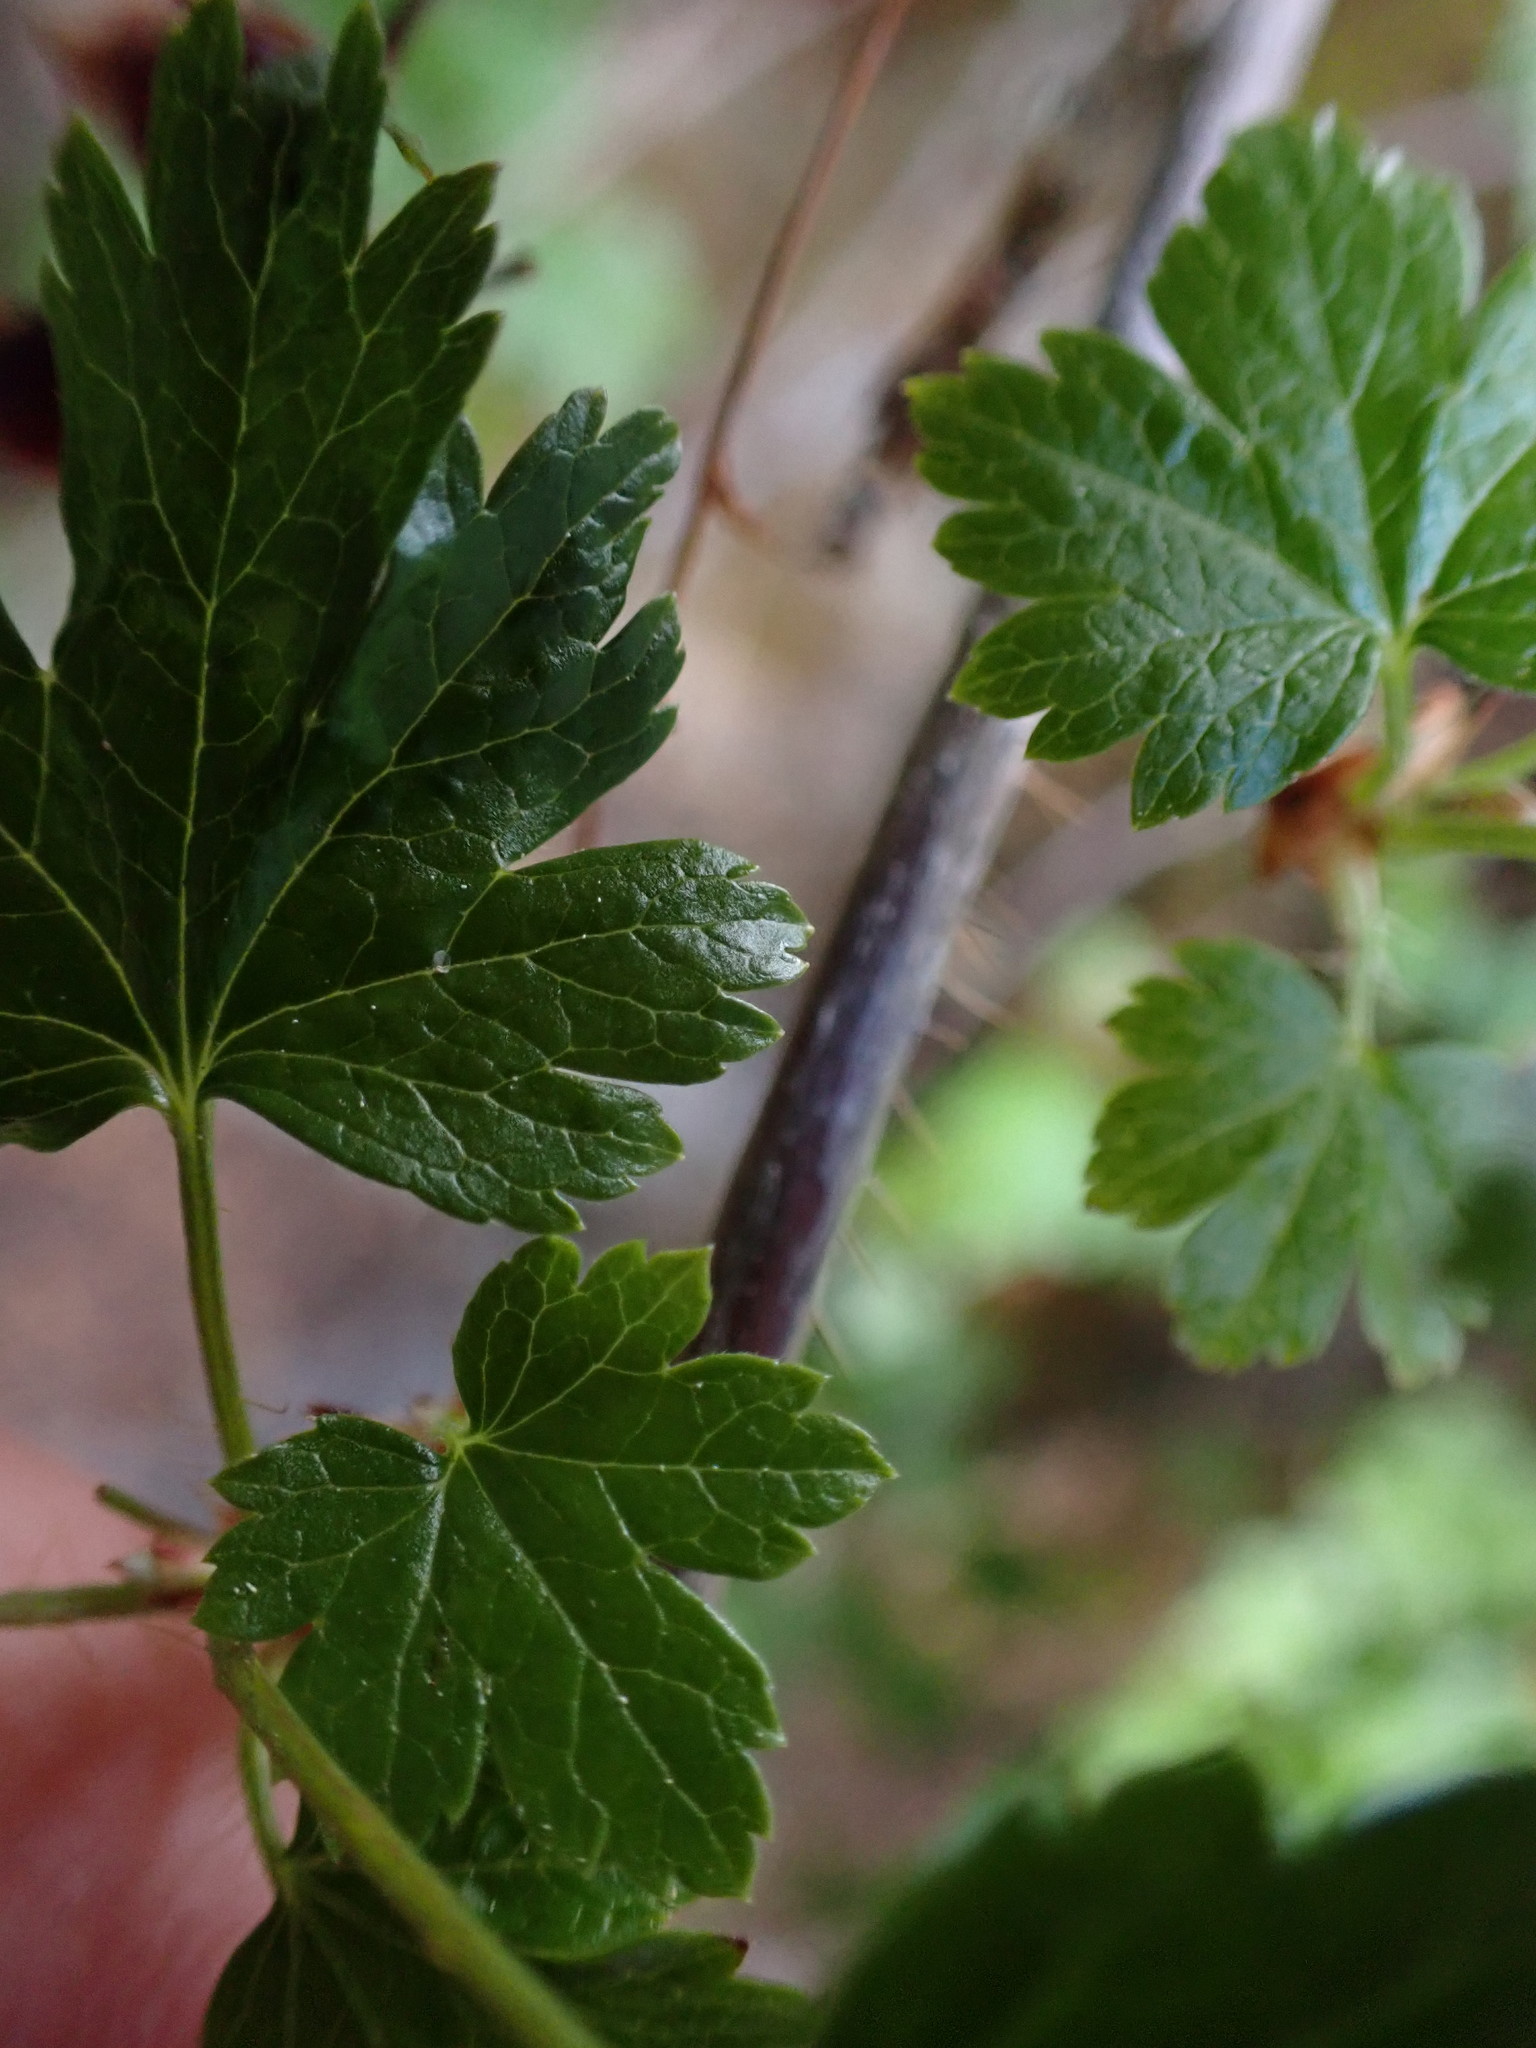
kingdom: Plantae
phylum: Tracheophyta
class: Magnoliopsida
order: Saxifragales
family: Grossulariaceae
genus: Ribes
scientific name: Ribes lacustre
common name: Black gooseberry
